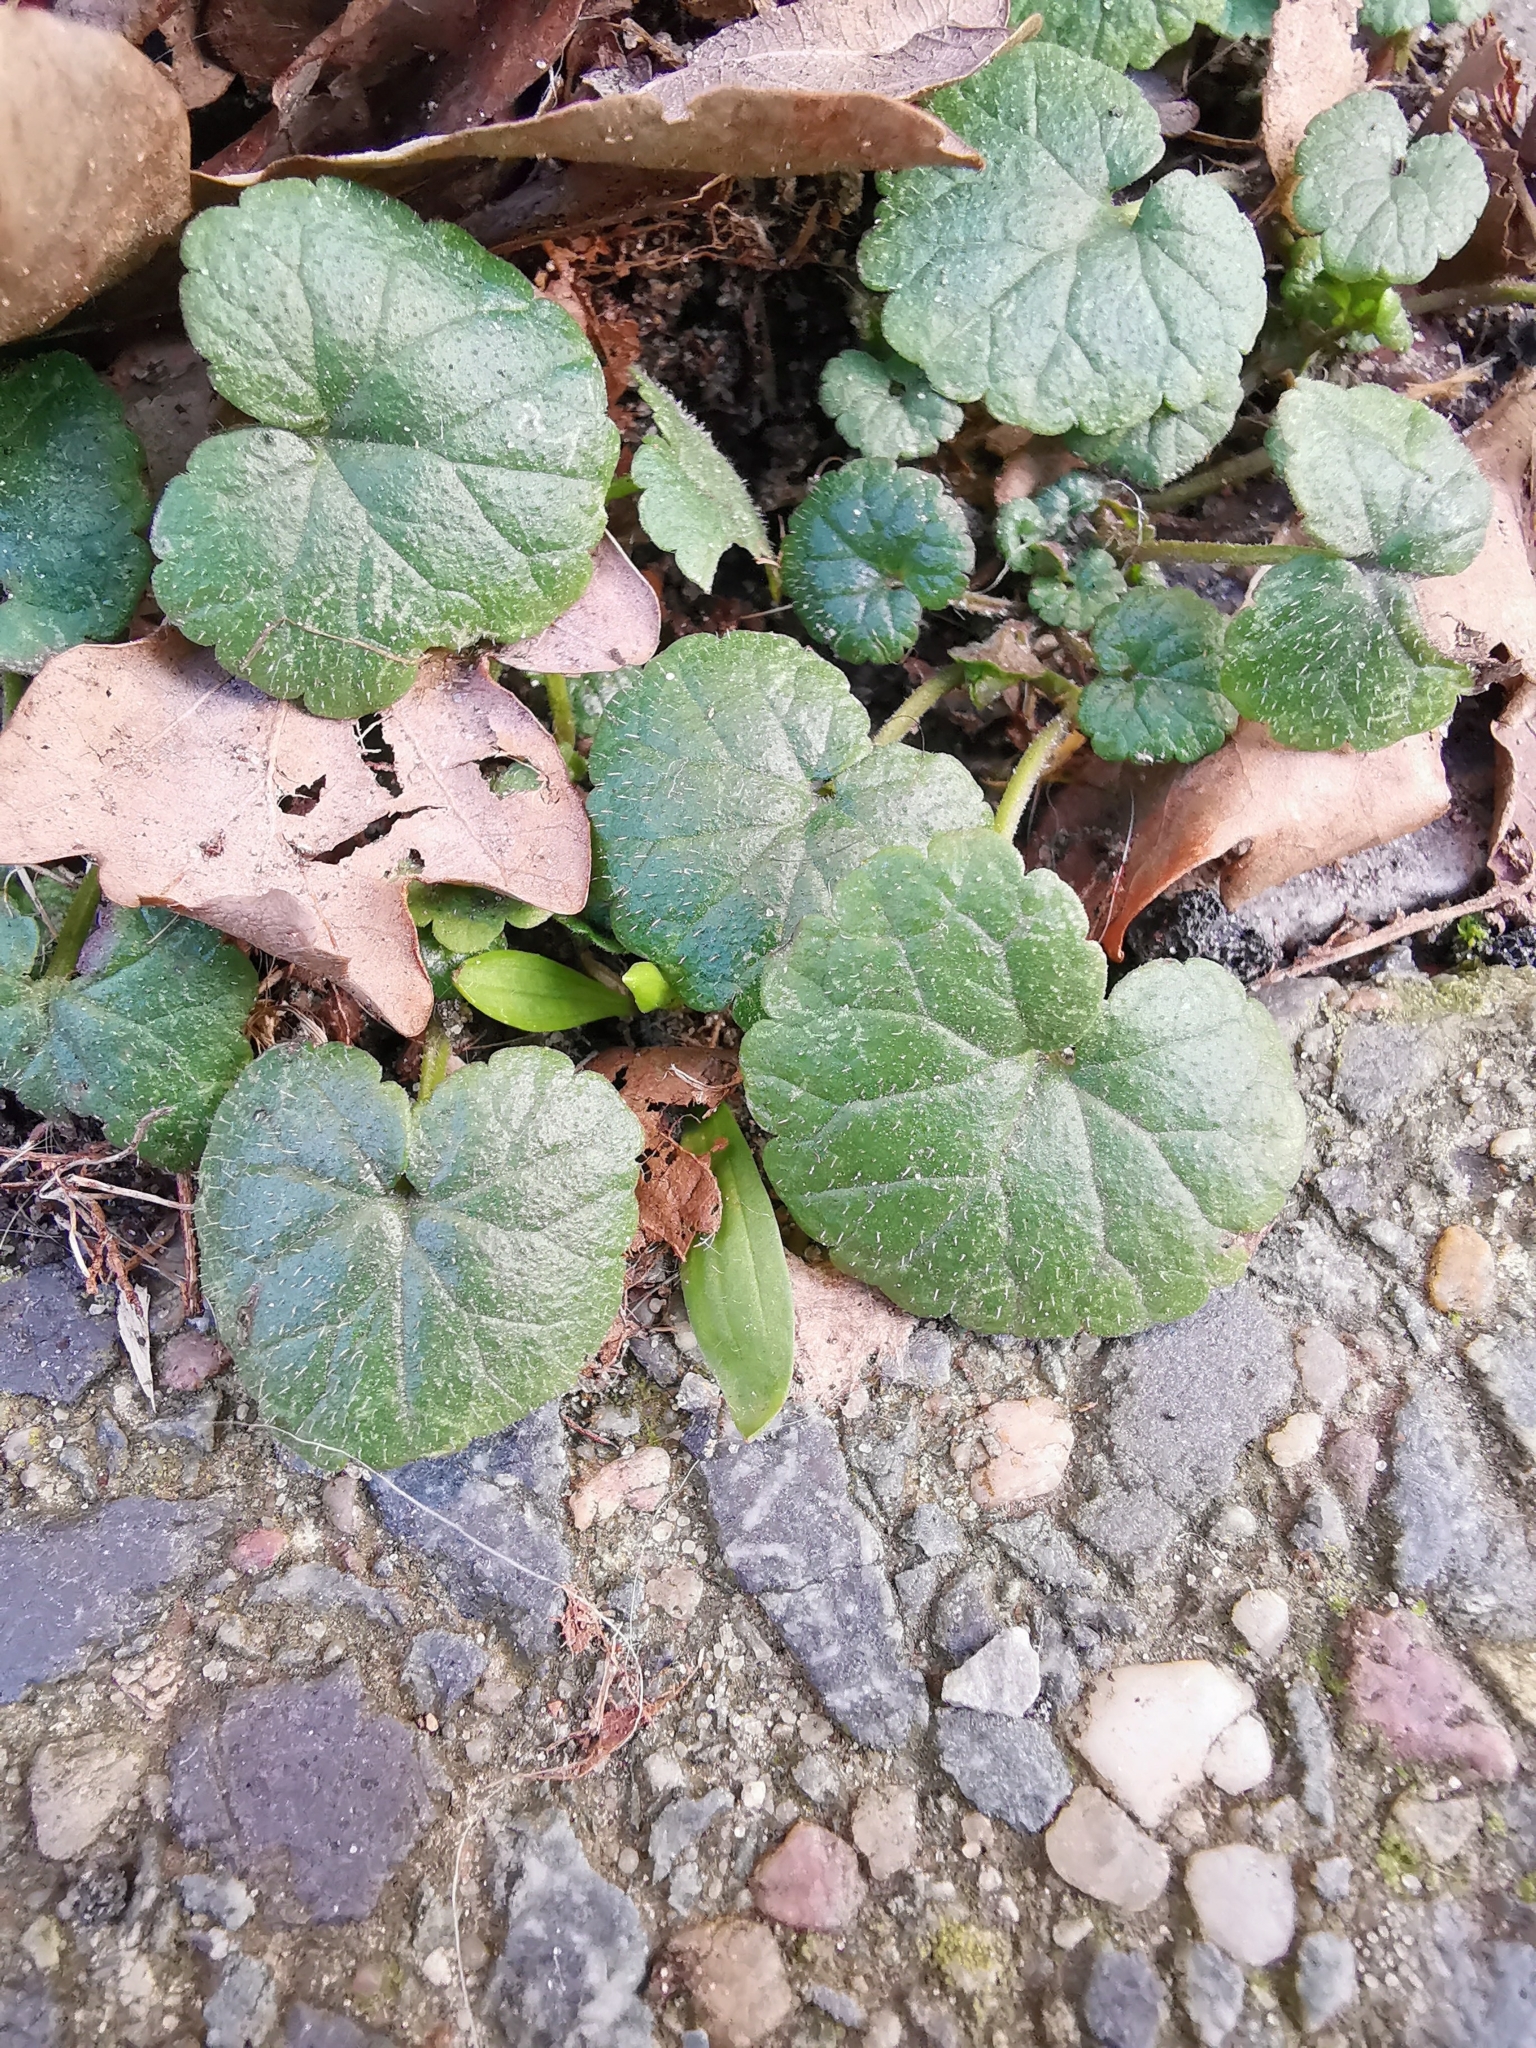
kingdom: Plantae
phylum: Tracheophyta
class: Magnoliopsida
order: Lamiales
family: Lamiaceae
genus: Glechoma
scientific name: Glechoma hederacea
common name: Ground ivy
